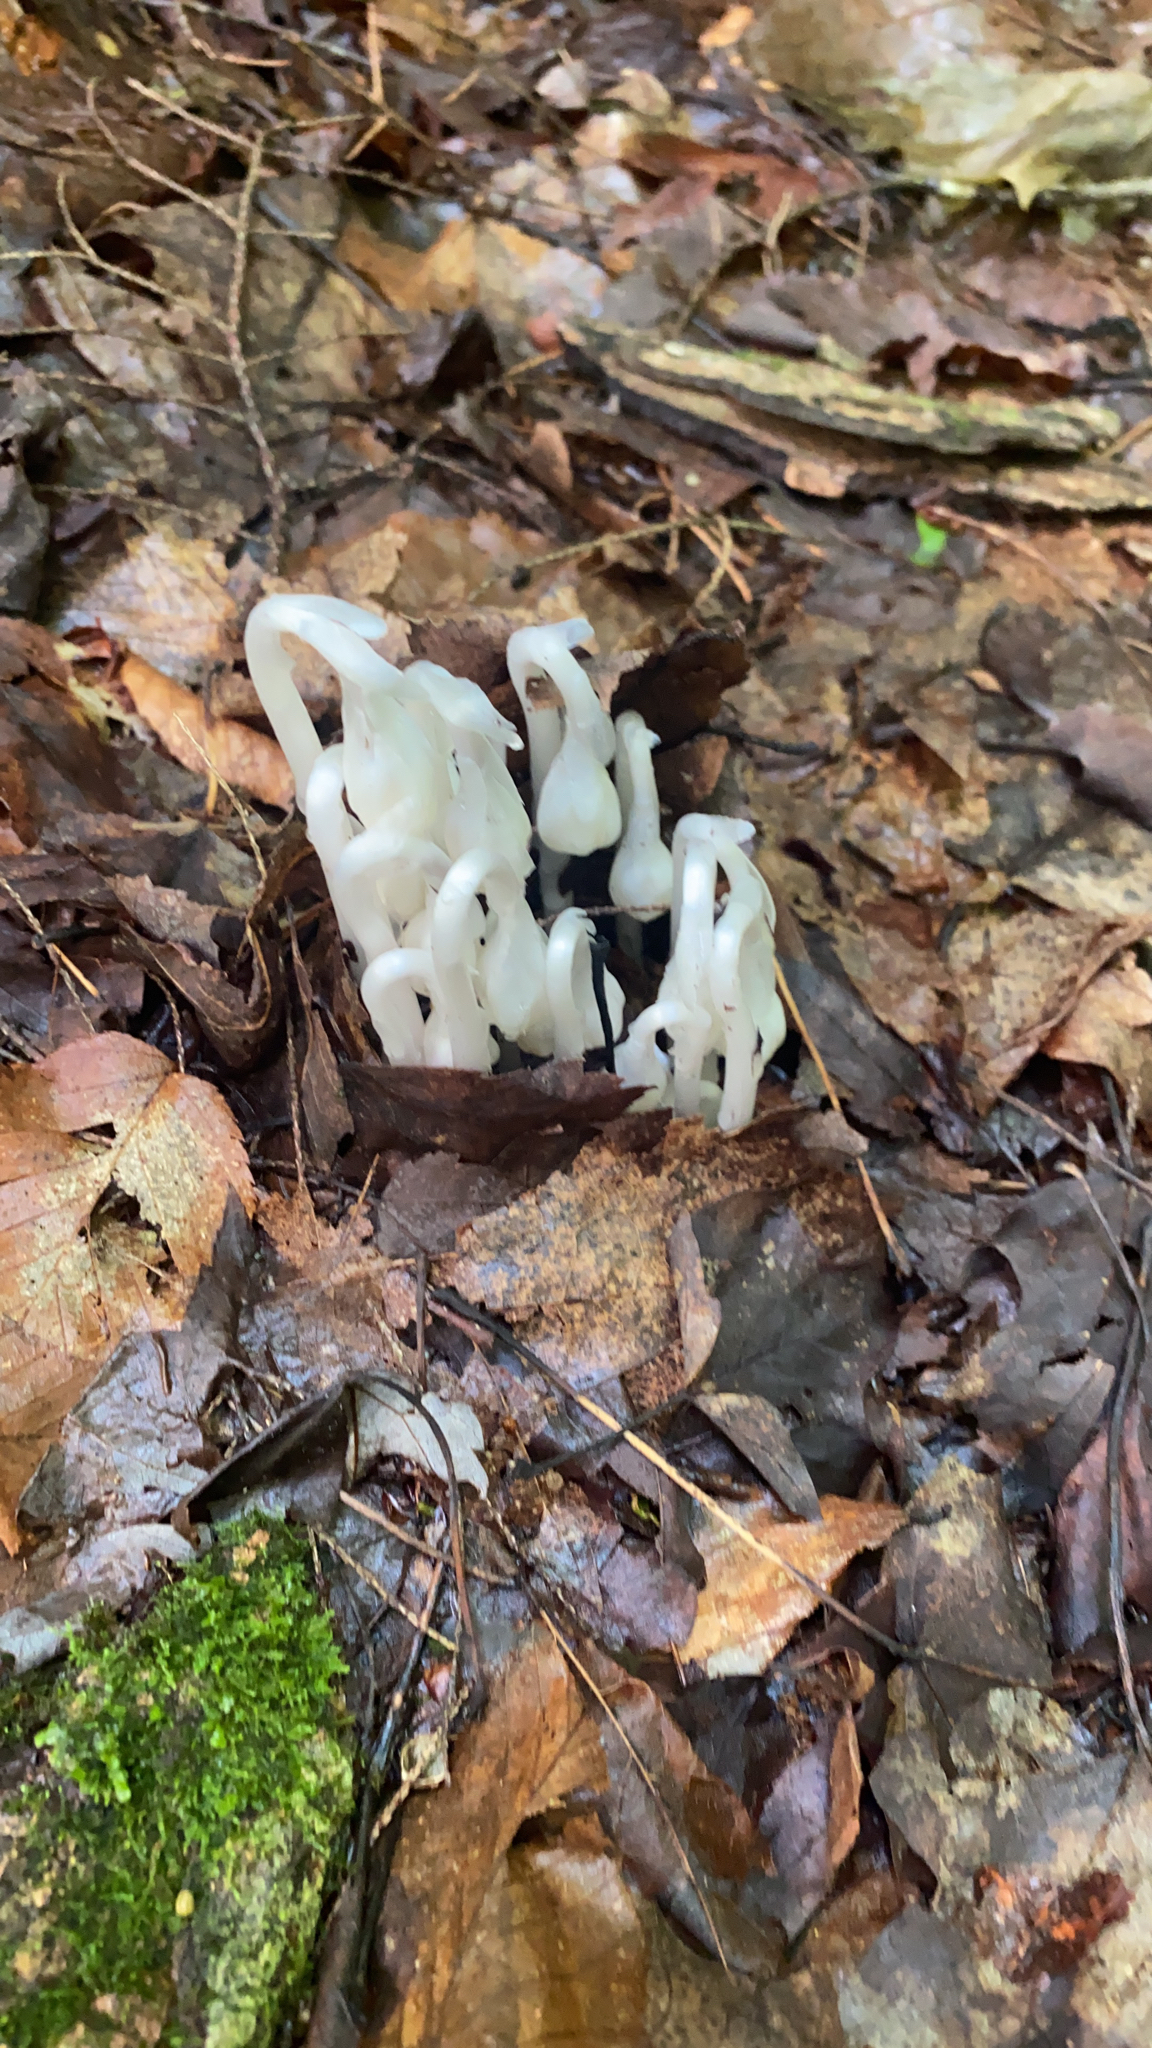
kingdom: Plantae
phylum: Tracheophyta
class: Magnoliopsida
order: Ericales
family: Ericaceae
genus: Monotropa
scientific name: Monotropa uniflora
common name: Convulsion root
